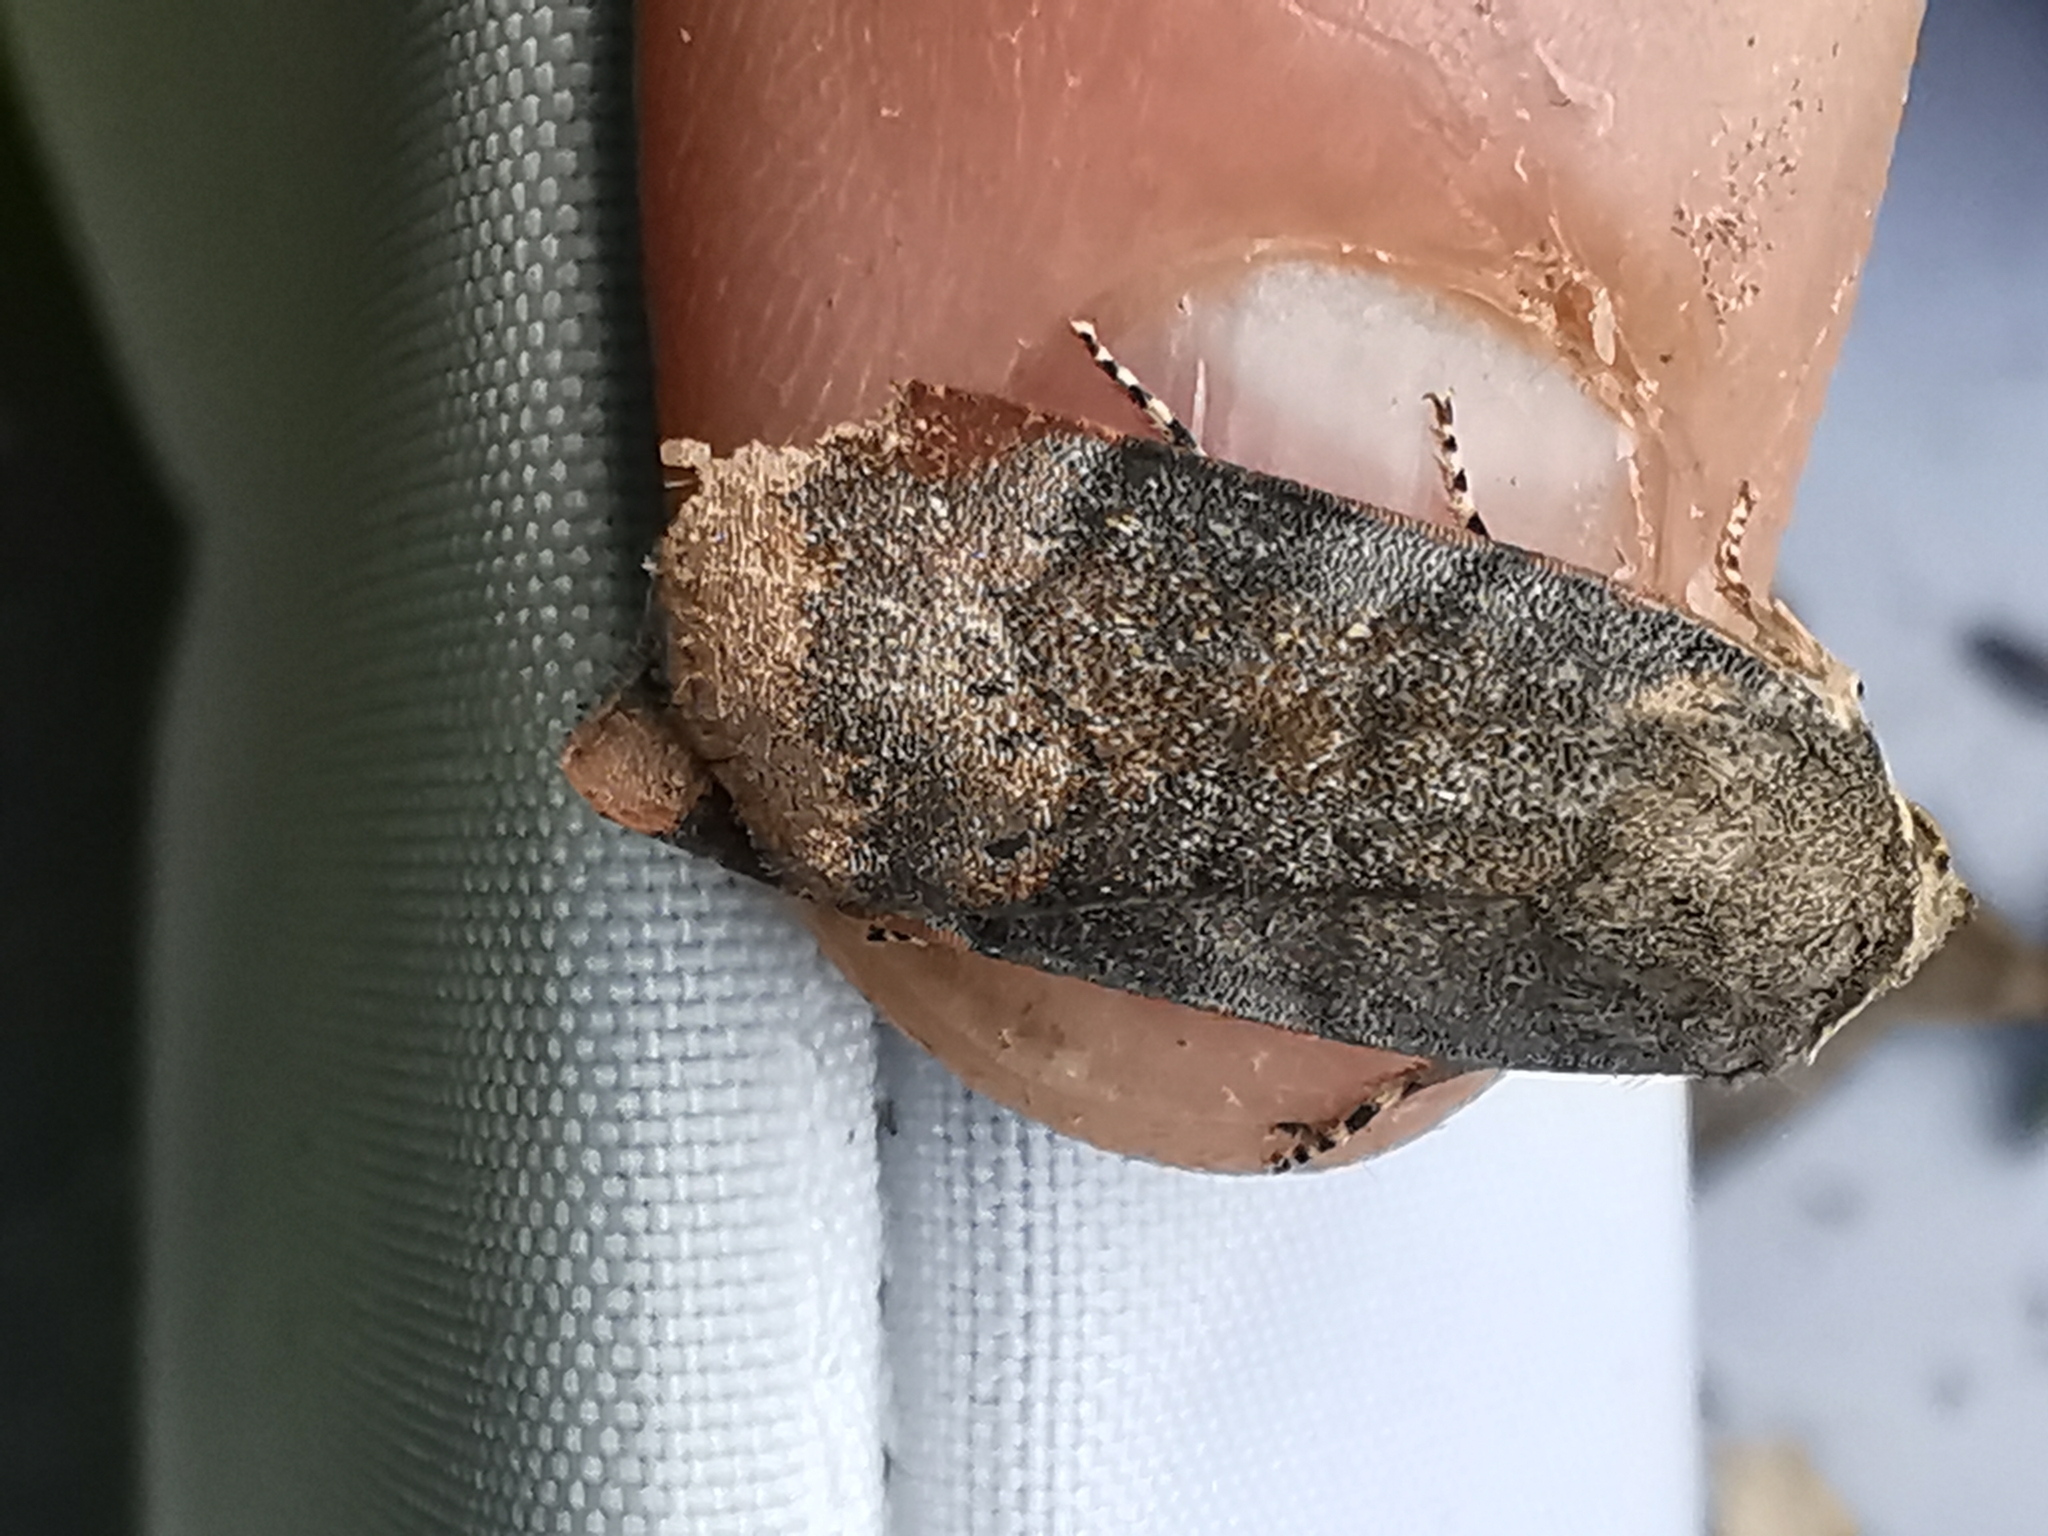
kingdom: Animalia
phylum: Arthropoda
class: Insecta
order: Lepidoptera
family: Noctuidae
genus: Noctua
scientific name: Noctua janthe
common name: Lesser broad-bordered yellow underwing
